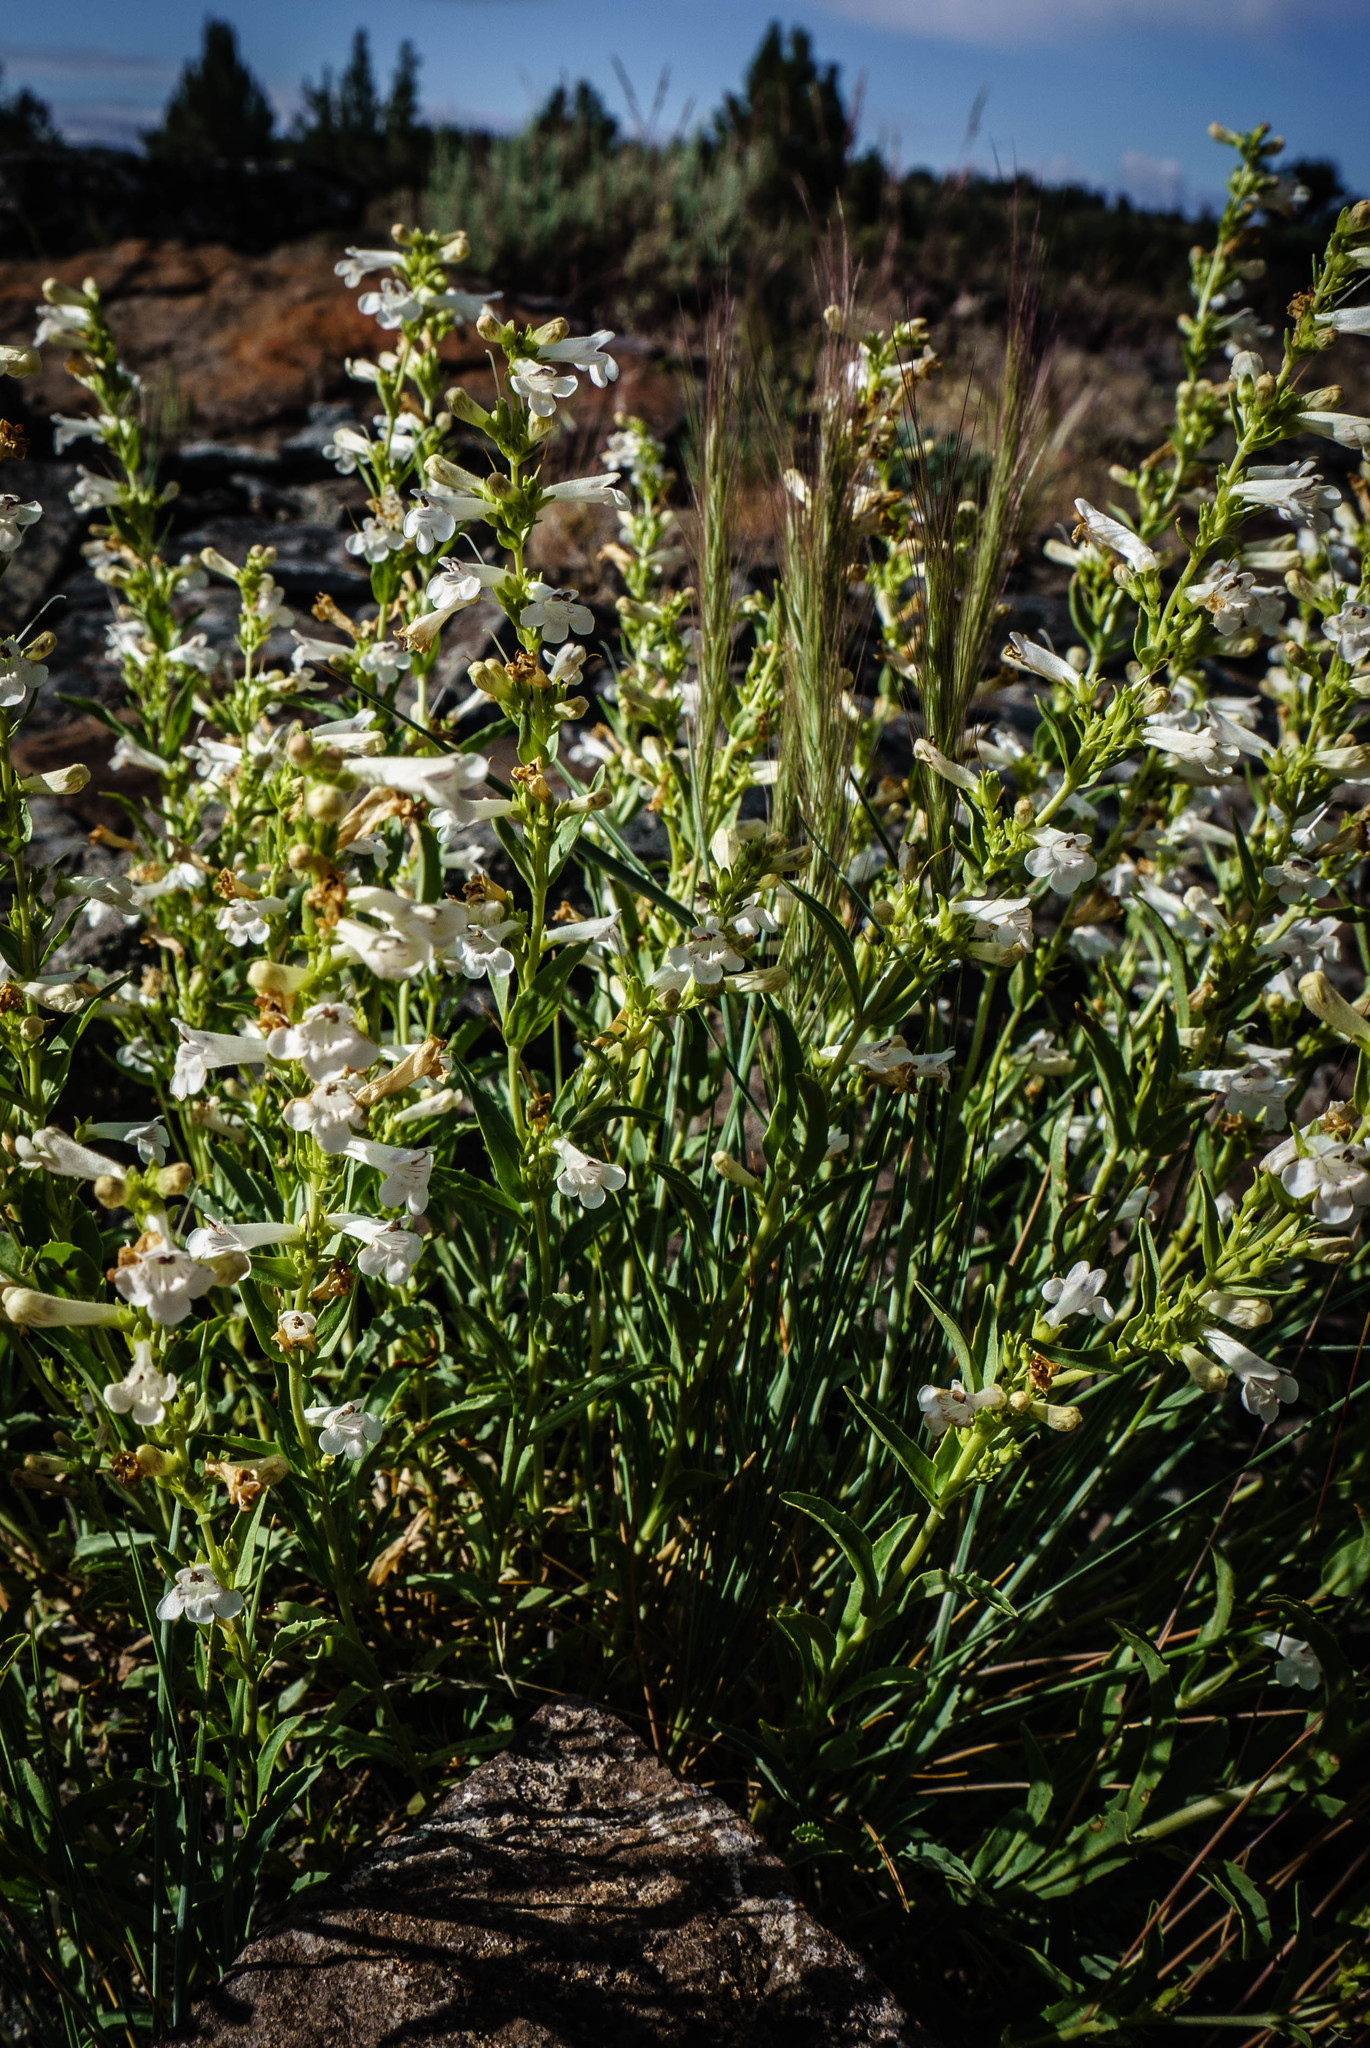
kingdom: Plantae
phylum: Tracheophyta
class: Magnoliopsida
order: Lamiales
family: Plantaginaceae
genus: Penstemon
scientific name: Penstemon deustus
